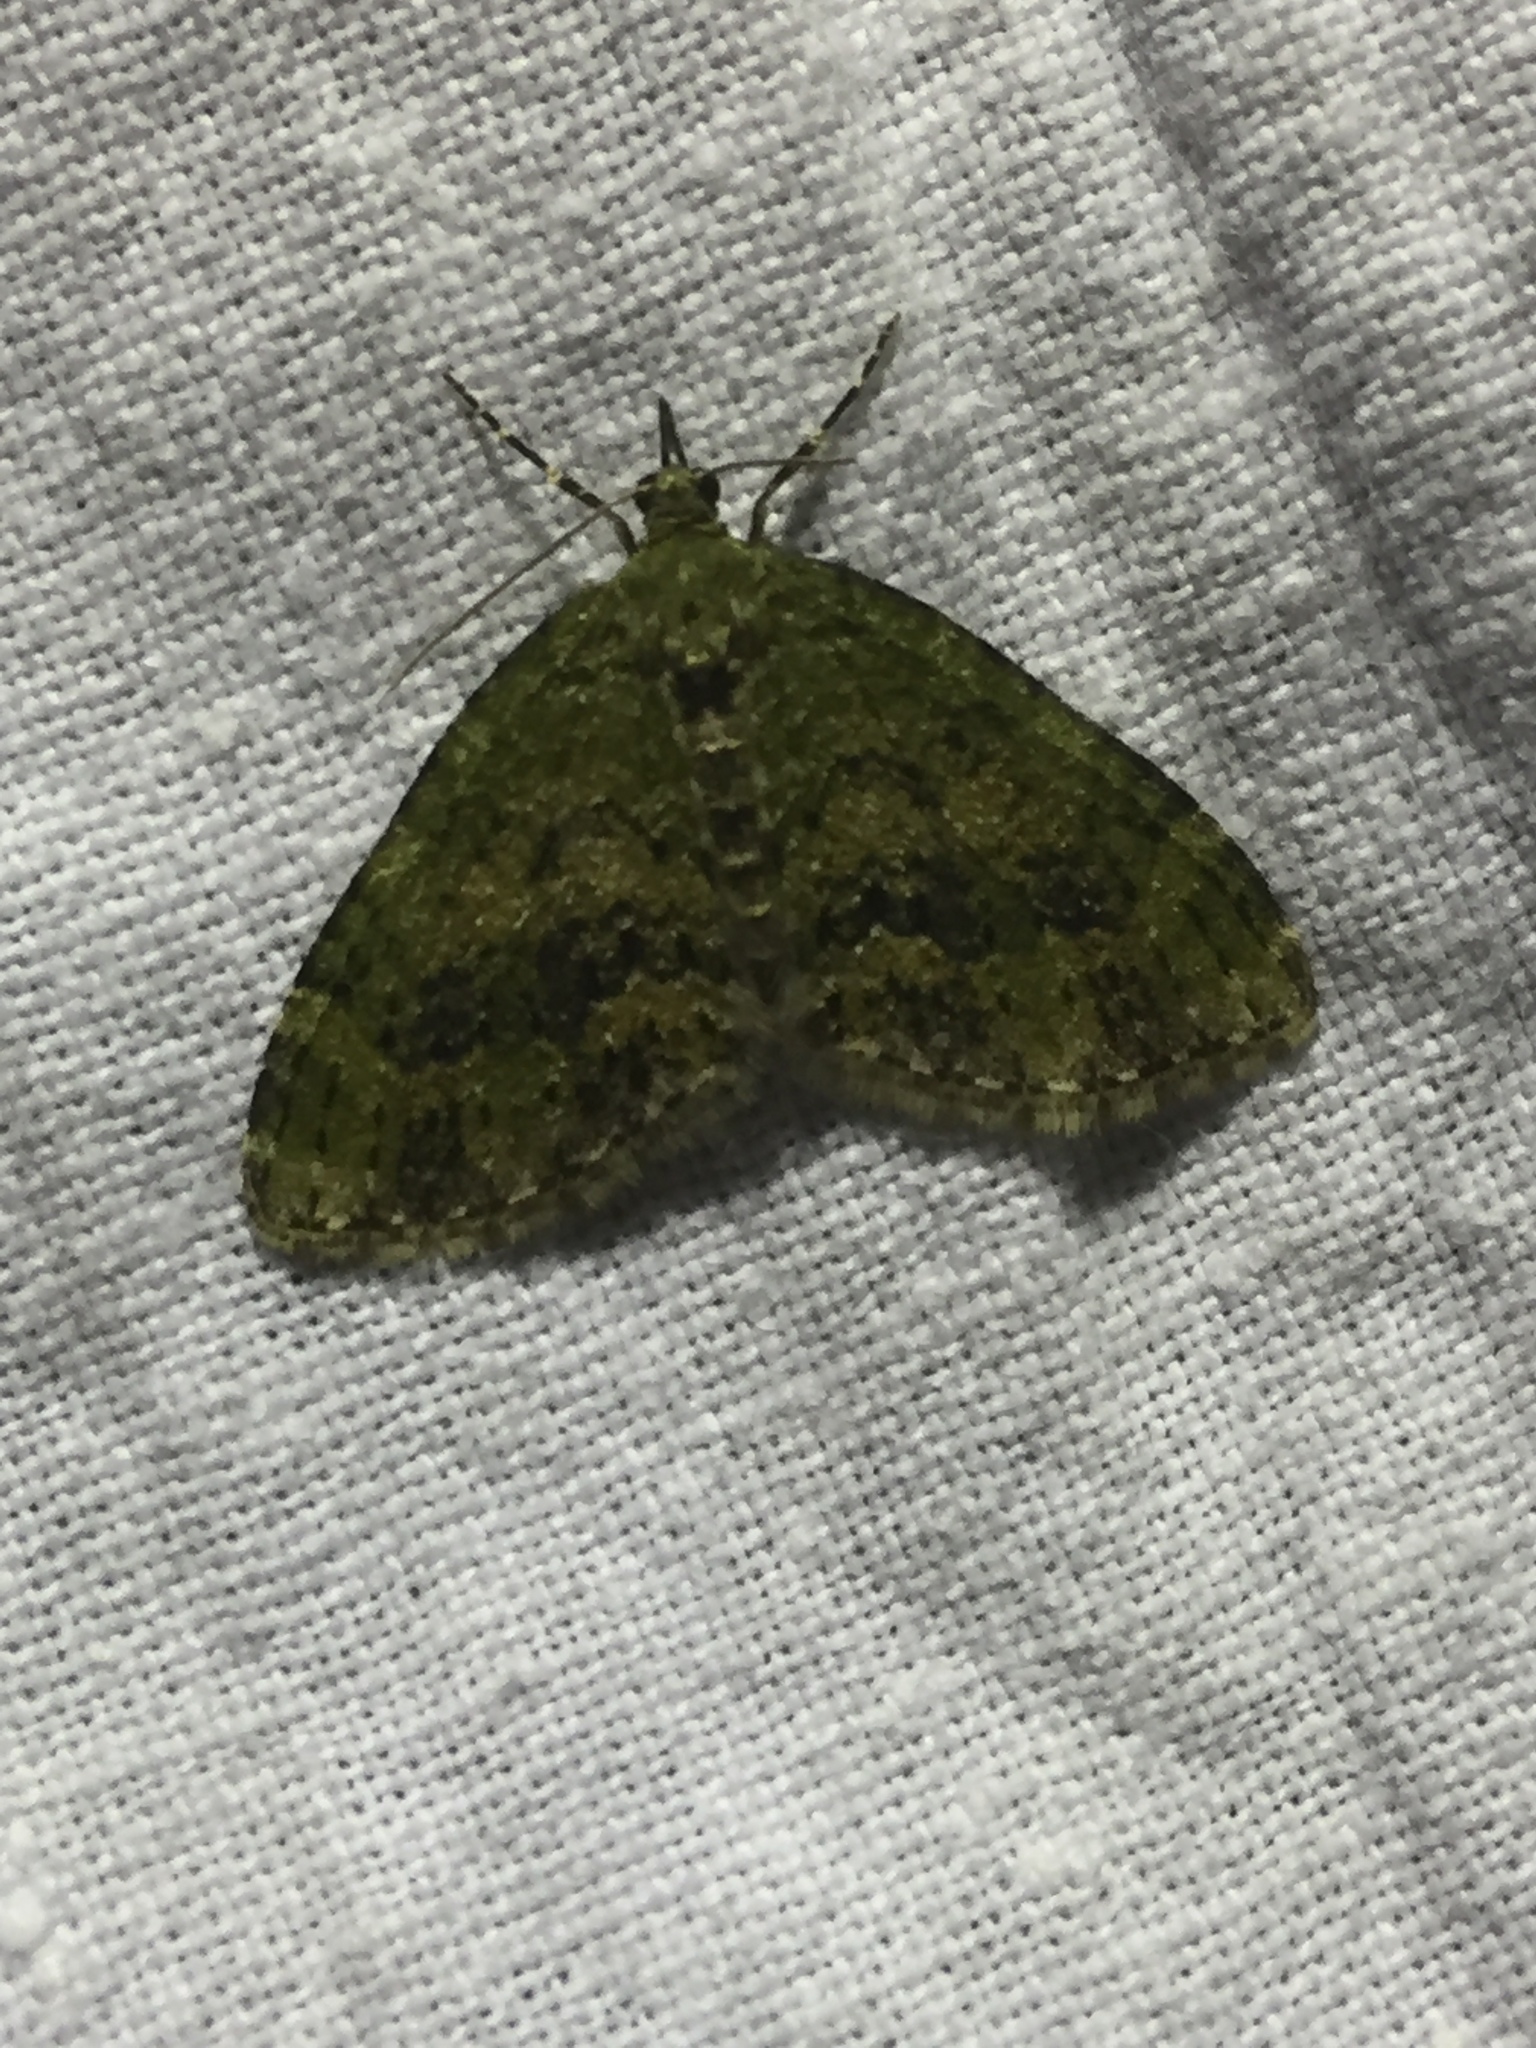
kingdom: Animalia
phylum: Arthropoda
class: Insecta
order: Lepidoptera
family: Geometridae
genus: Acasis
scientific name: Acasis viretata
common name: Yellow-barred brindle
